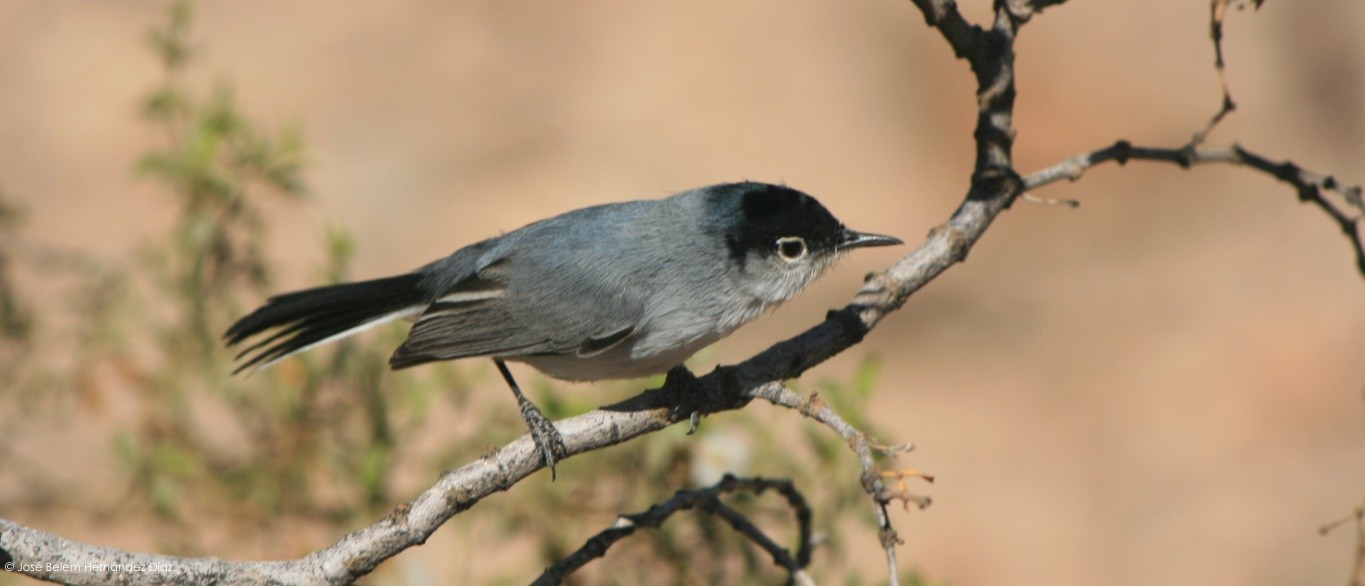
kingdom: Animalia
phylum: Chordata
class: Aves
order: Passeriformes
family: Polioptilidae
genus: Polioptila
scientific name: Polioptila melanura
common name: Black-tailed gnatcatcher
